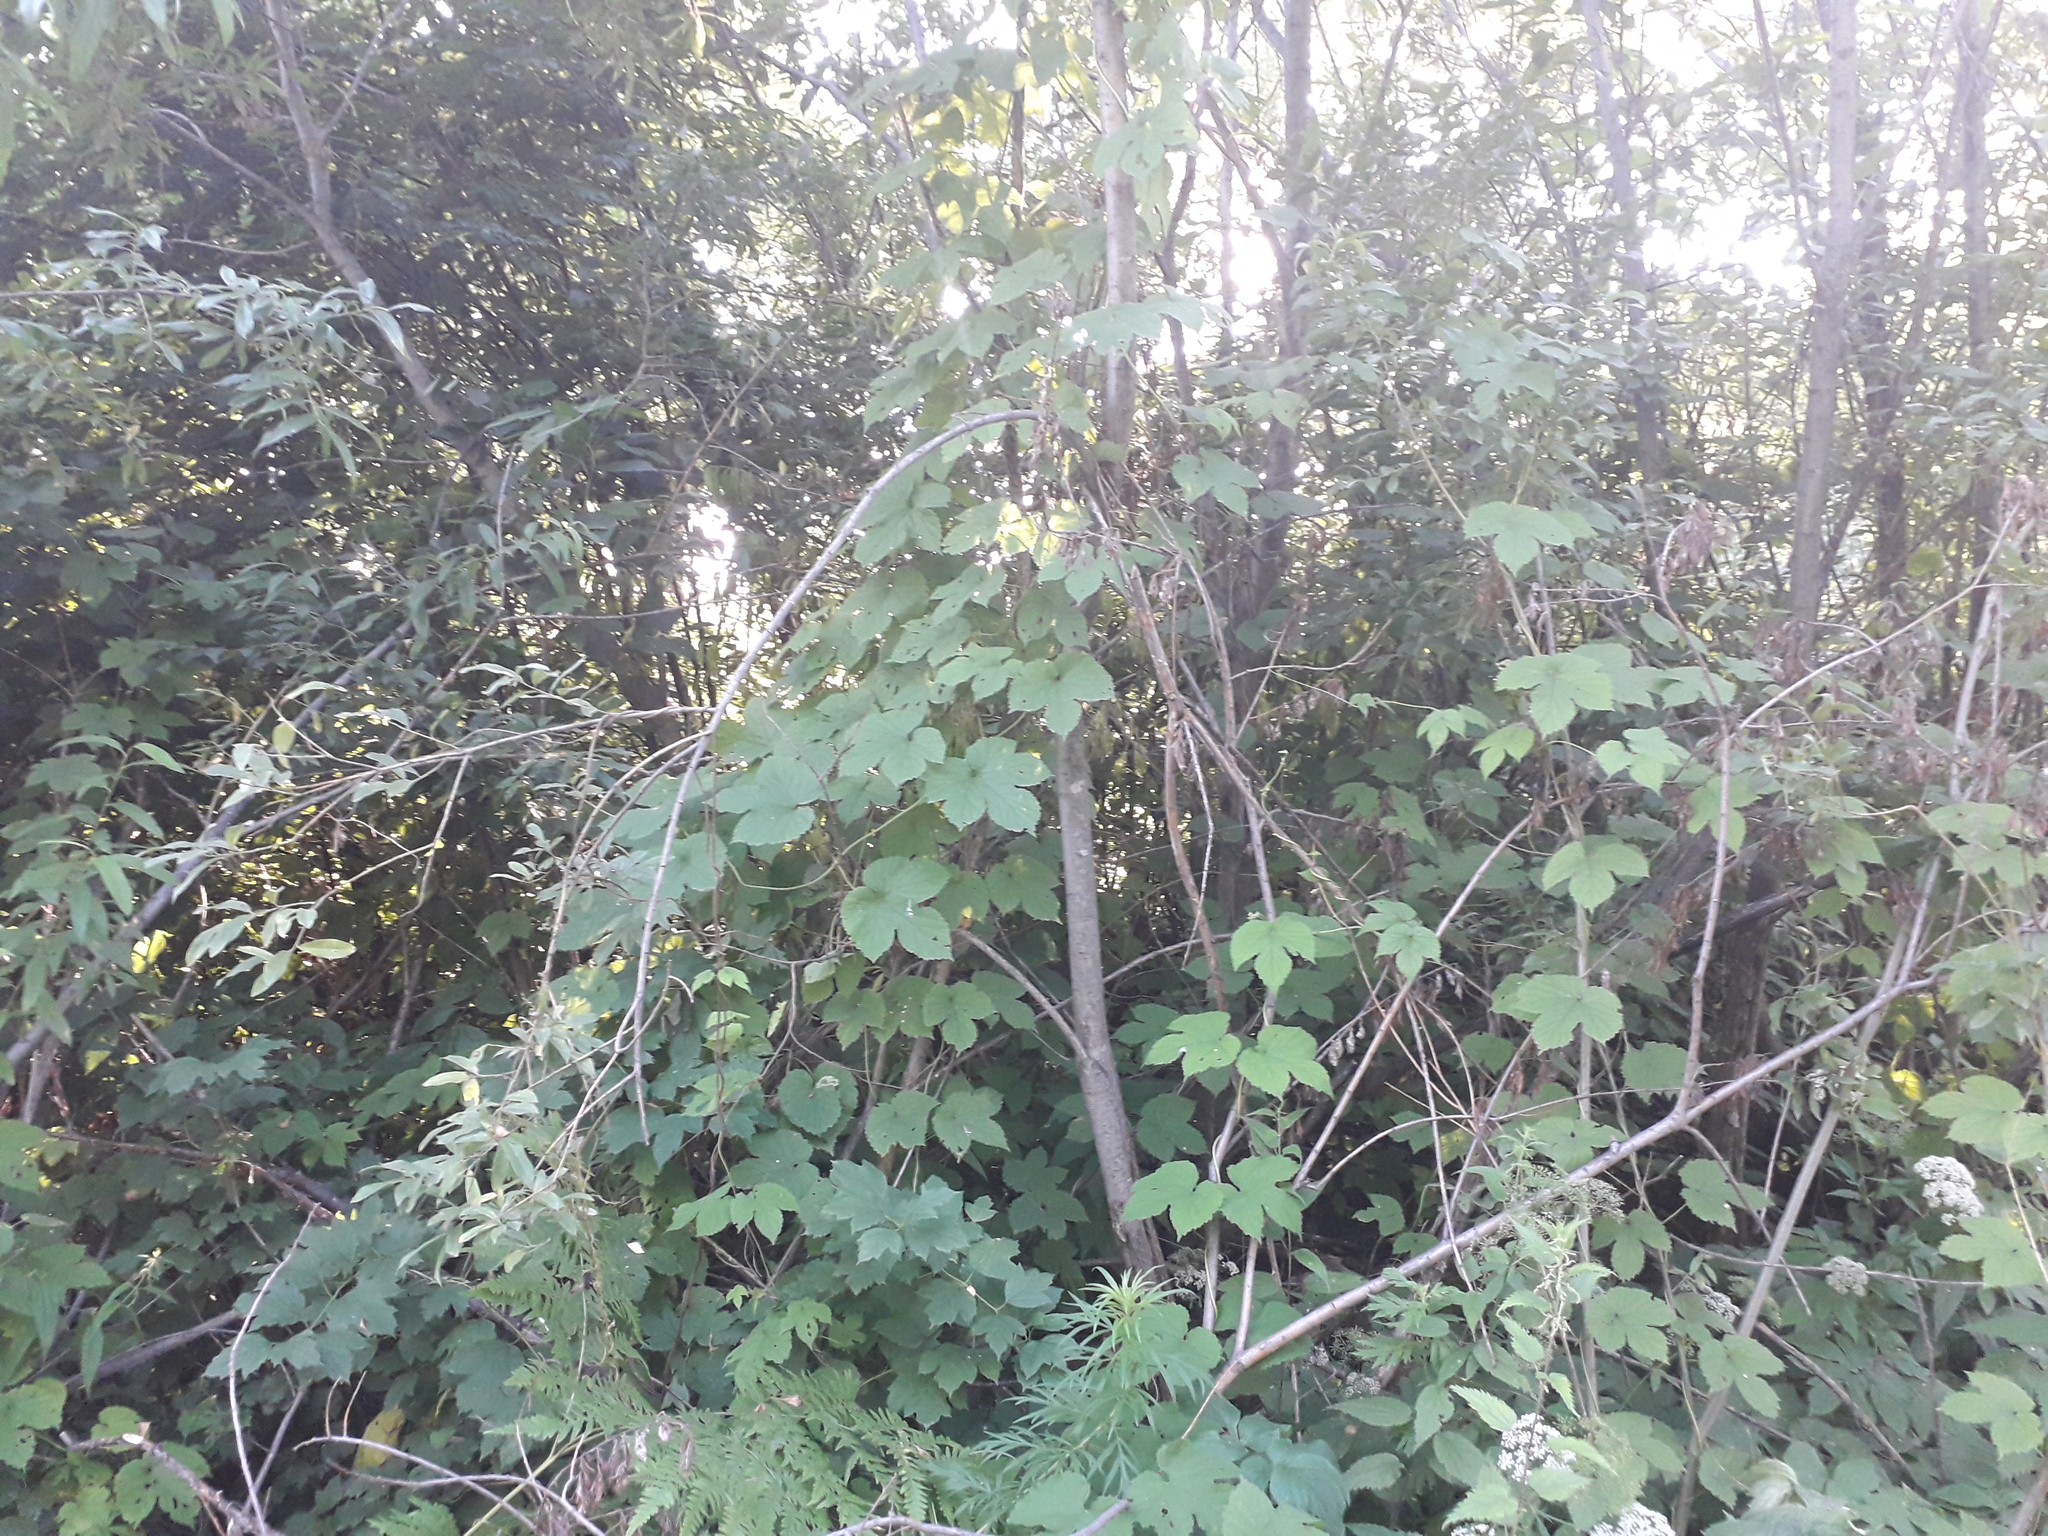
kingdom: Plantae
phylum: Tracheophyta
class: Magnoliopsida
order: Rosales
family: Cannabaceae
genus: Humulus
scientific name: Humulus lupulus
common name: Hop
